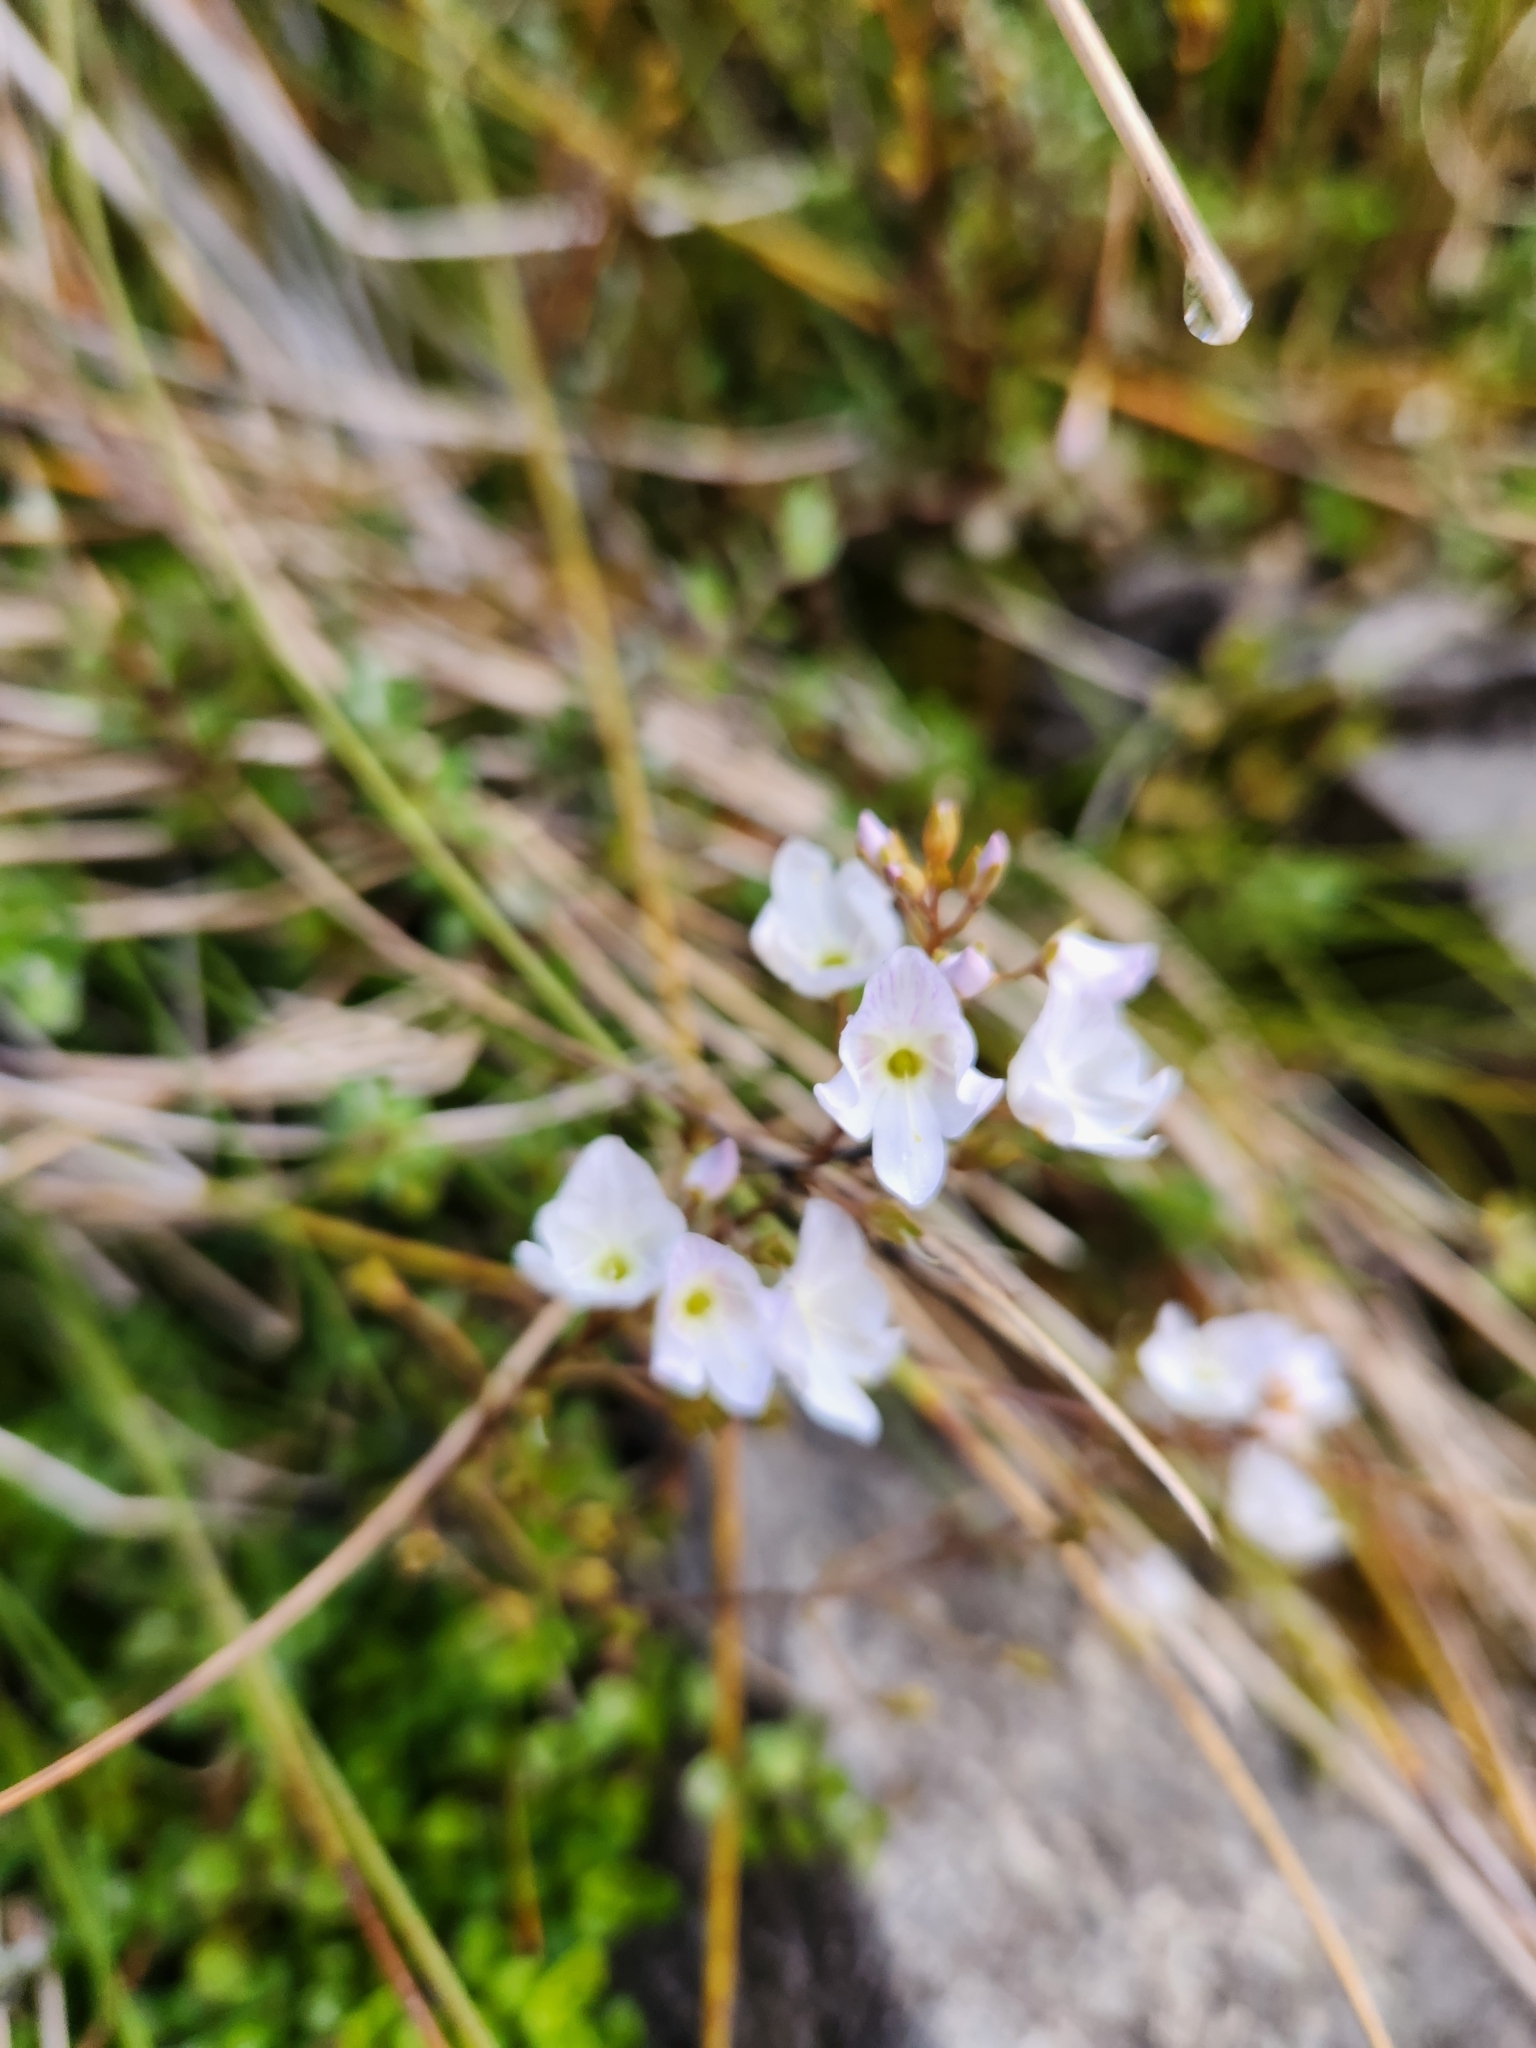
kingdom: Plantae
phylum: Tracheophyta
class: Magnoliopsida
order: Lamiales
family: Plantaginaceae
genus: Veronica
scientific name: Veronica lyallii
